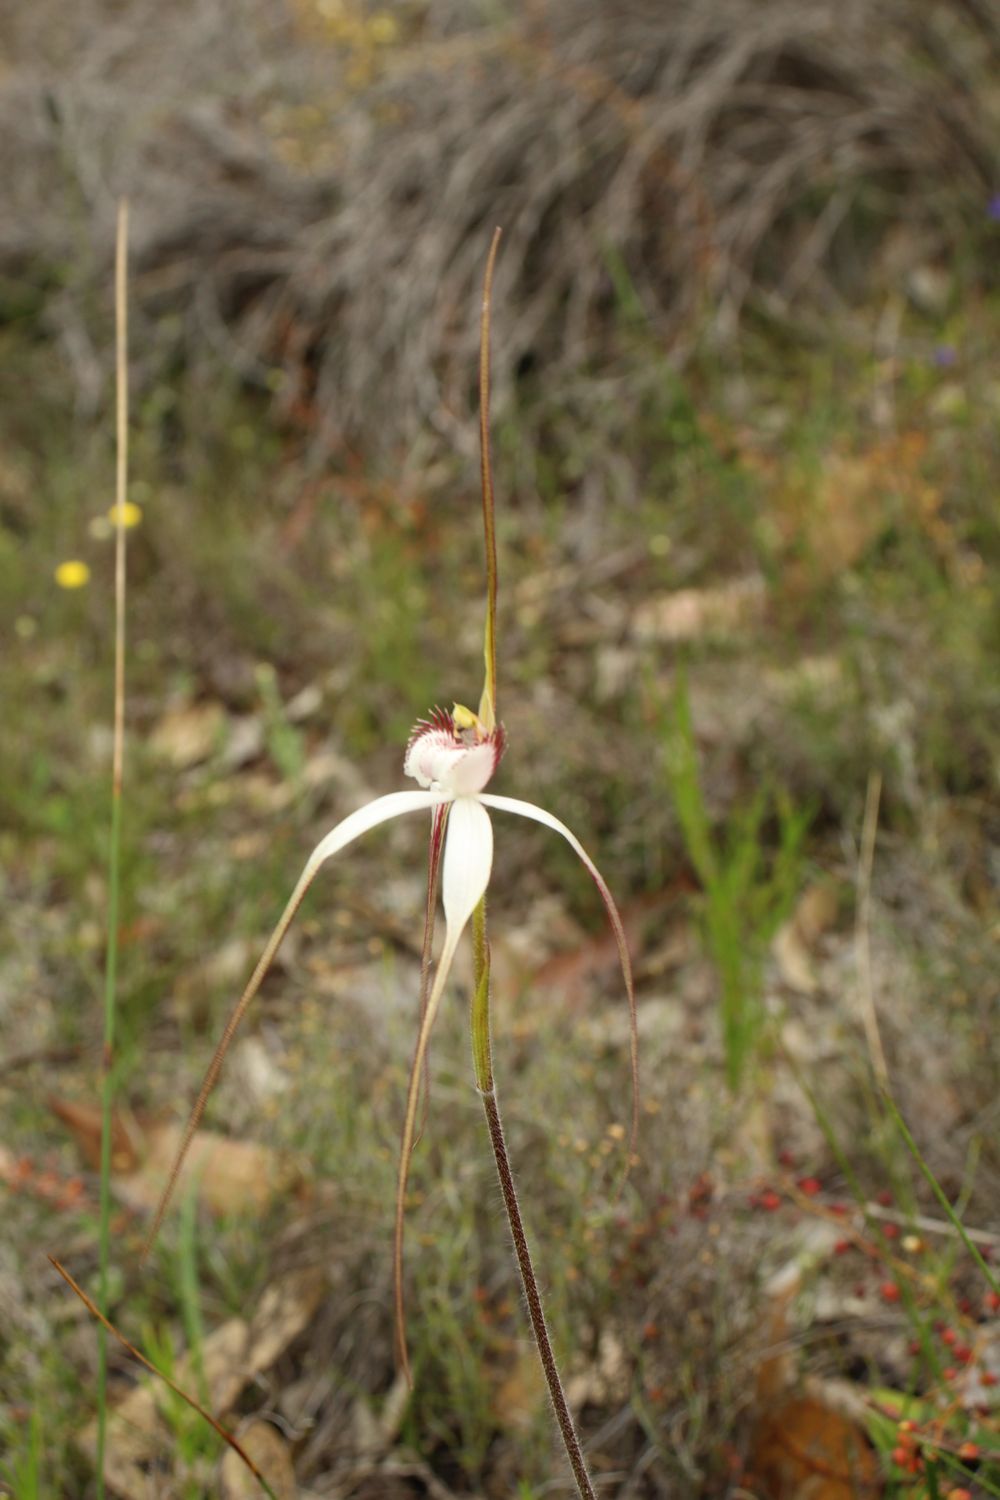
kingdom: Plantae
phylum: Tracheophyta
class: Liliopsida
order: Asparagales
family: Orchidaceae
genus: Caladenia
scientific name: Caladenia longicauda
